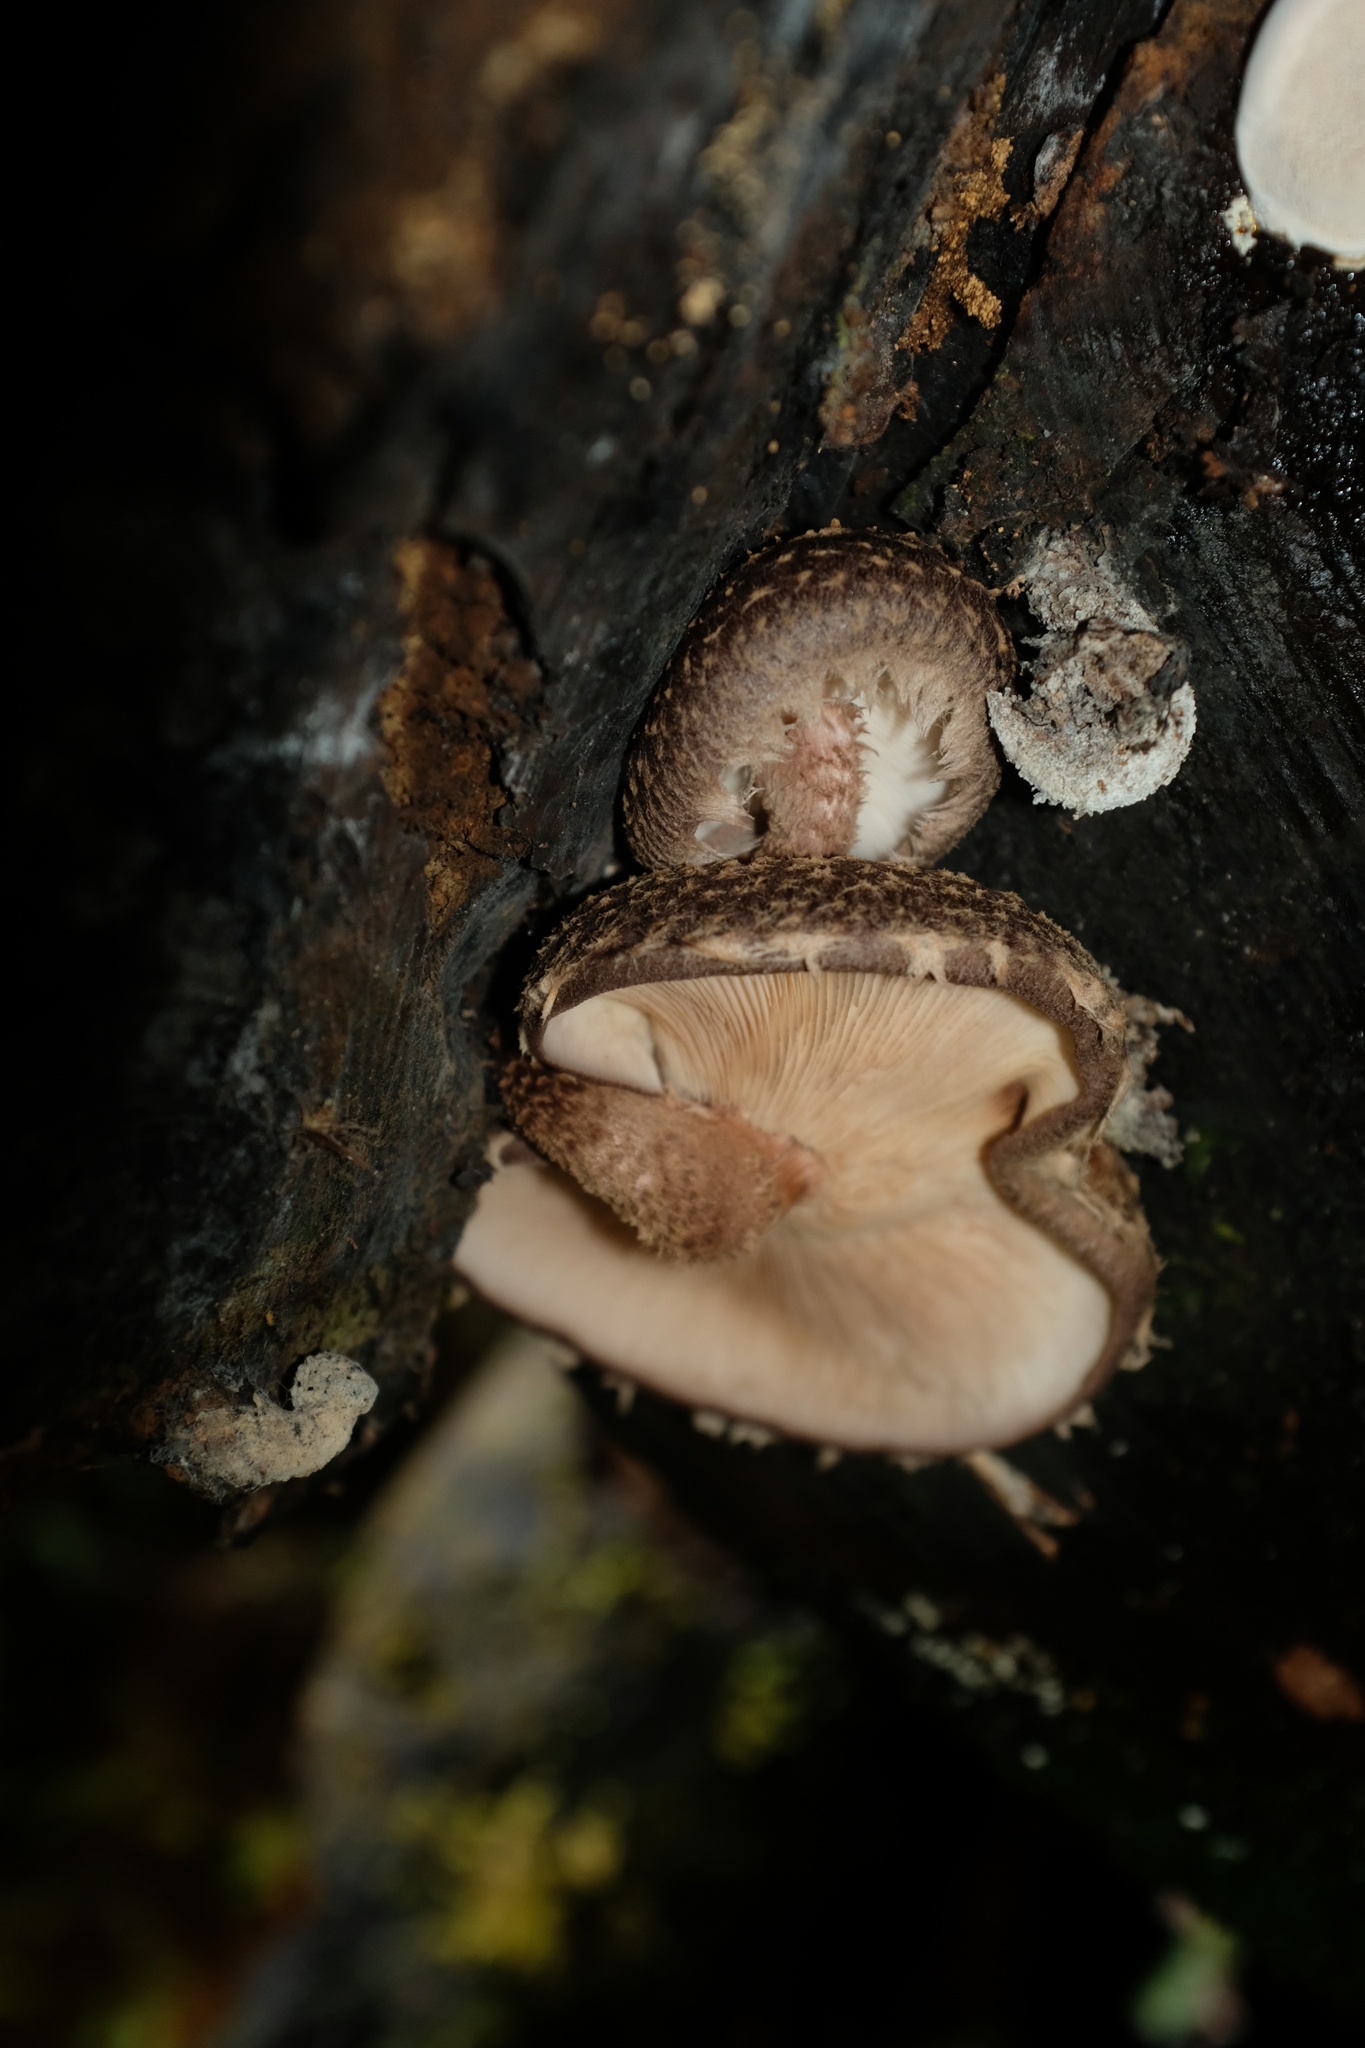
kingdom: Fungi
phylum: Basidiomycota
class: Agaricomycetes
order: Agaricales
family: Omphalotaceae
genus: Lentinula
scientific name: Lentinula novae-zelandiae
